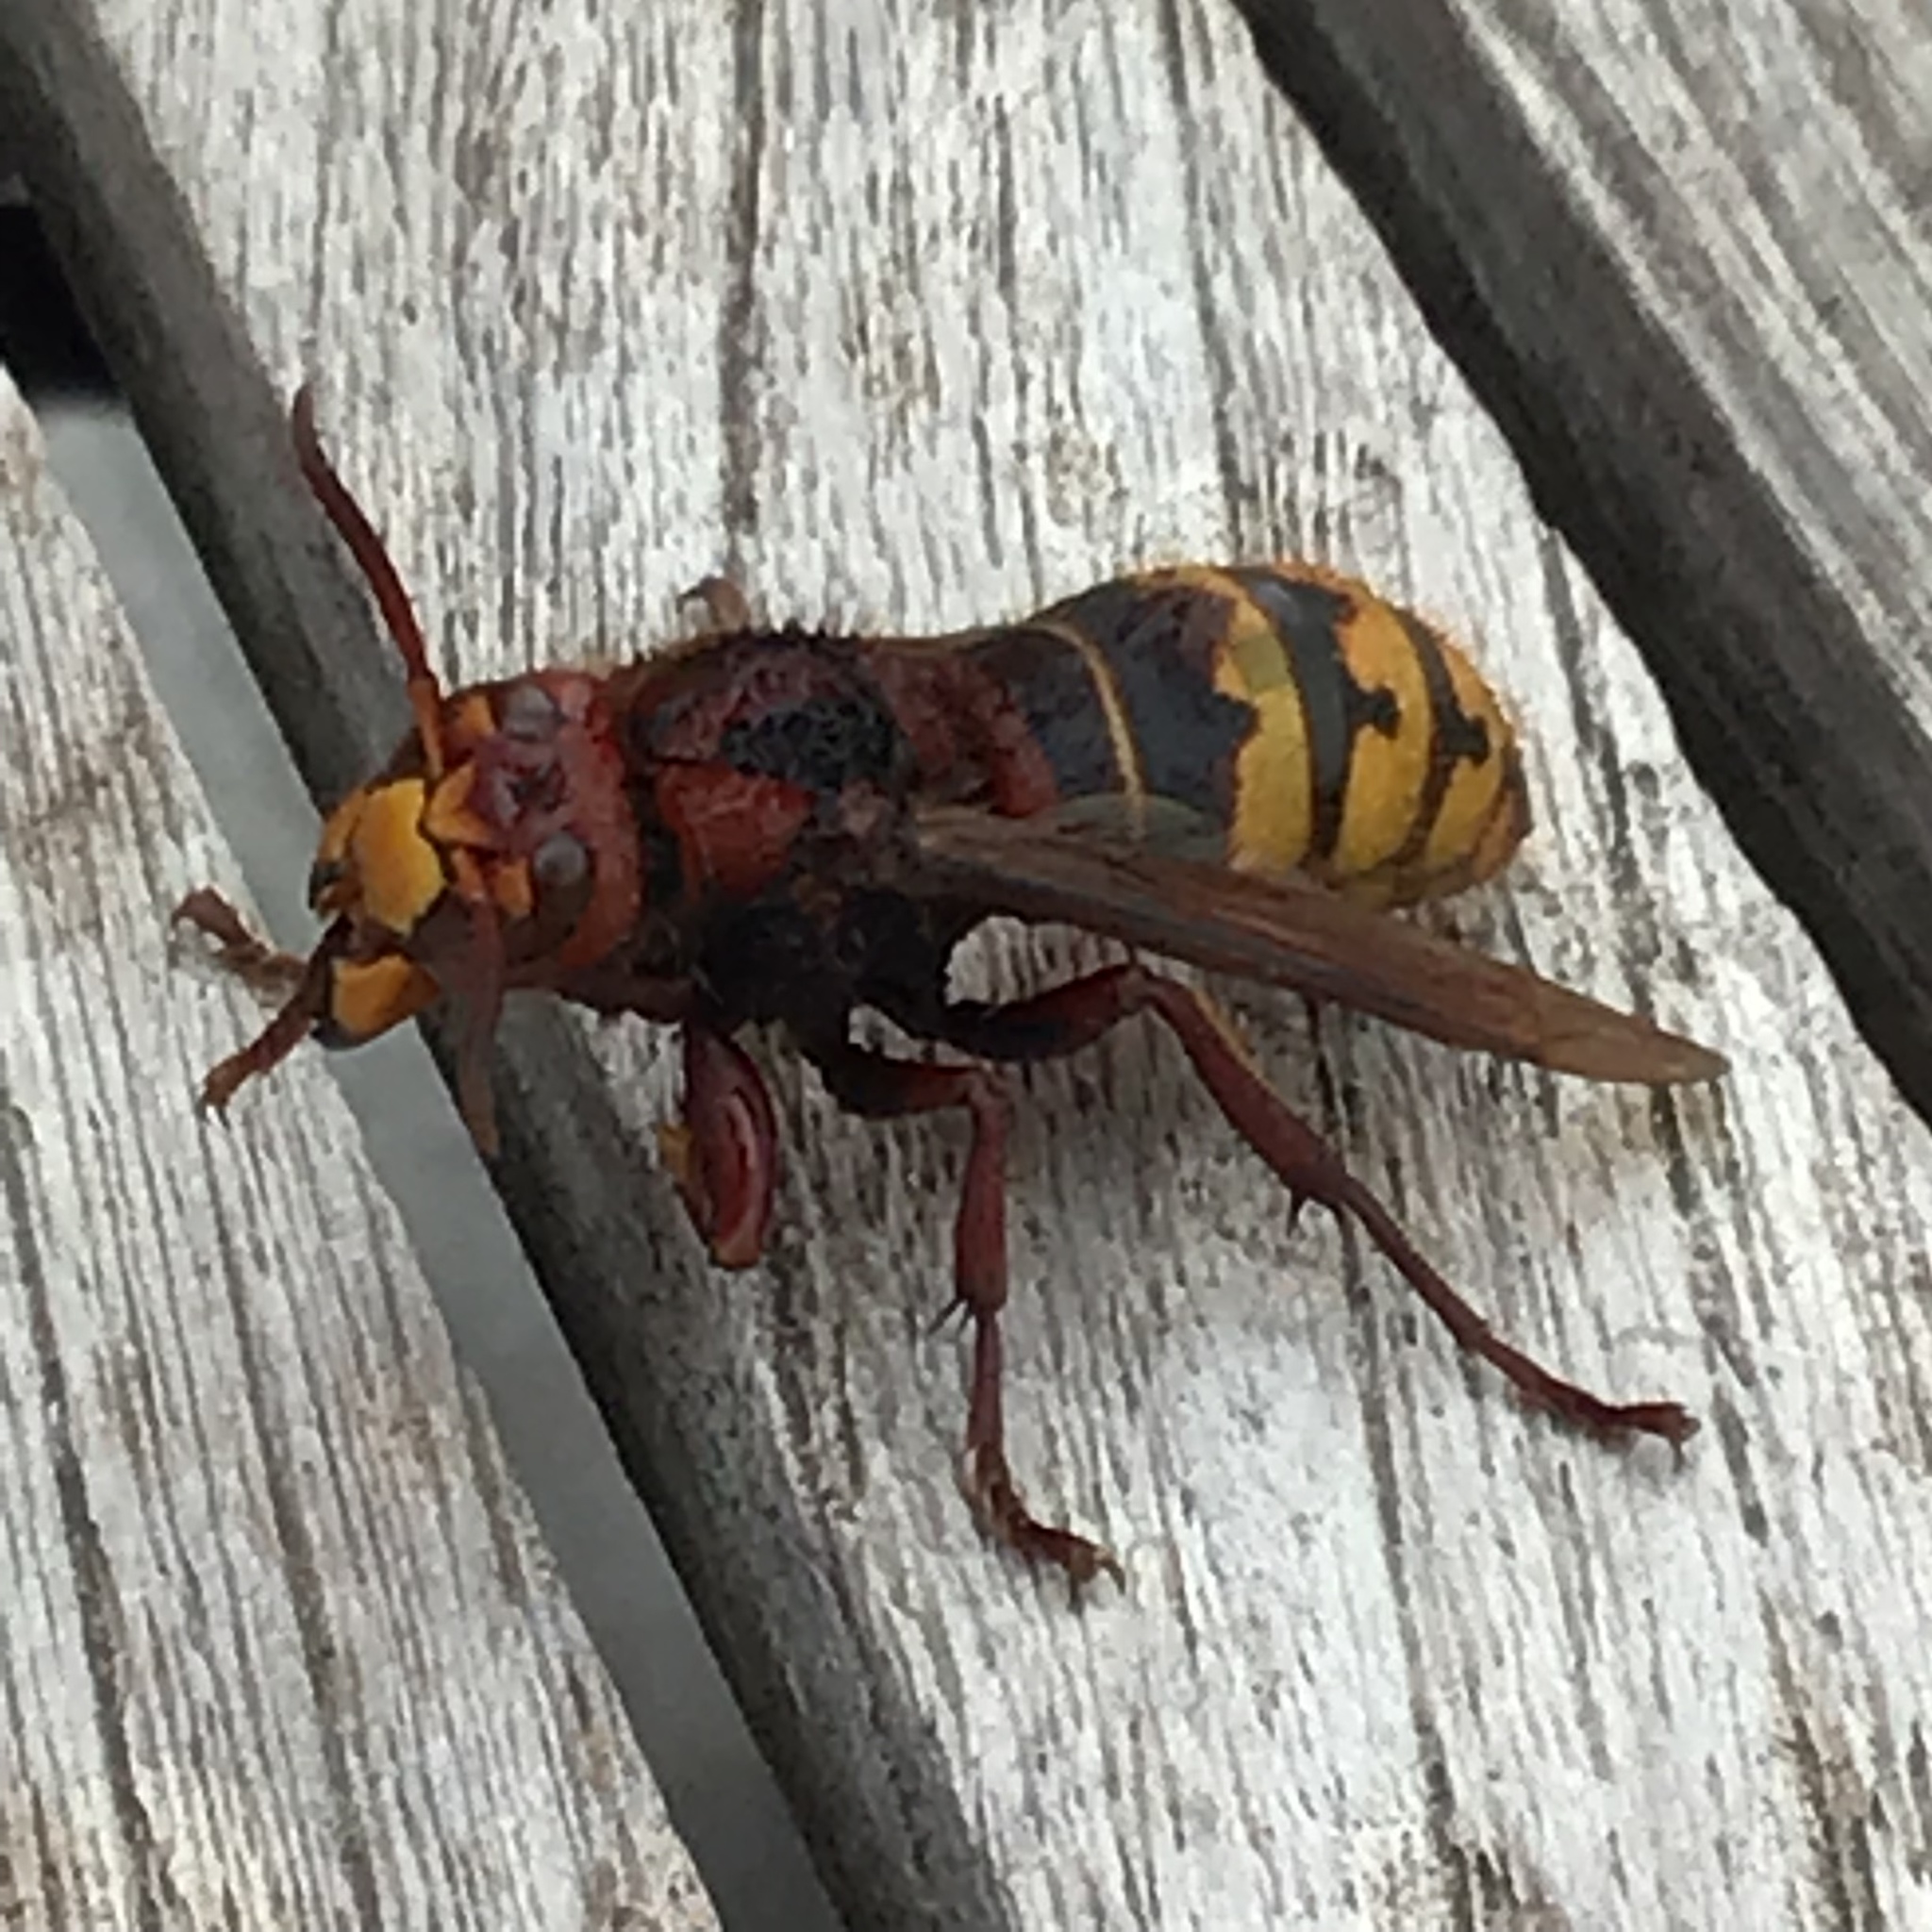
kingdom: Animalia
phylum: Arthropoda
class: Insecta
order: Hymenoptera
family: Vespidae
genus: Vespa
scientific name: Vespa crabro
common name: Hornet
